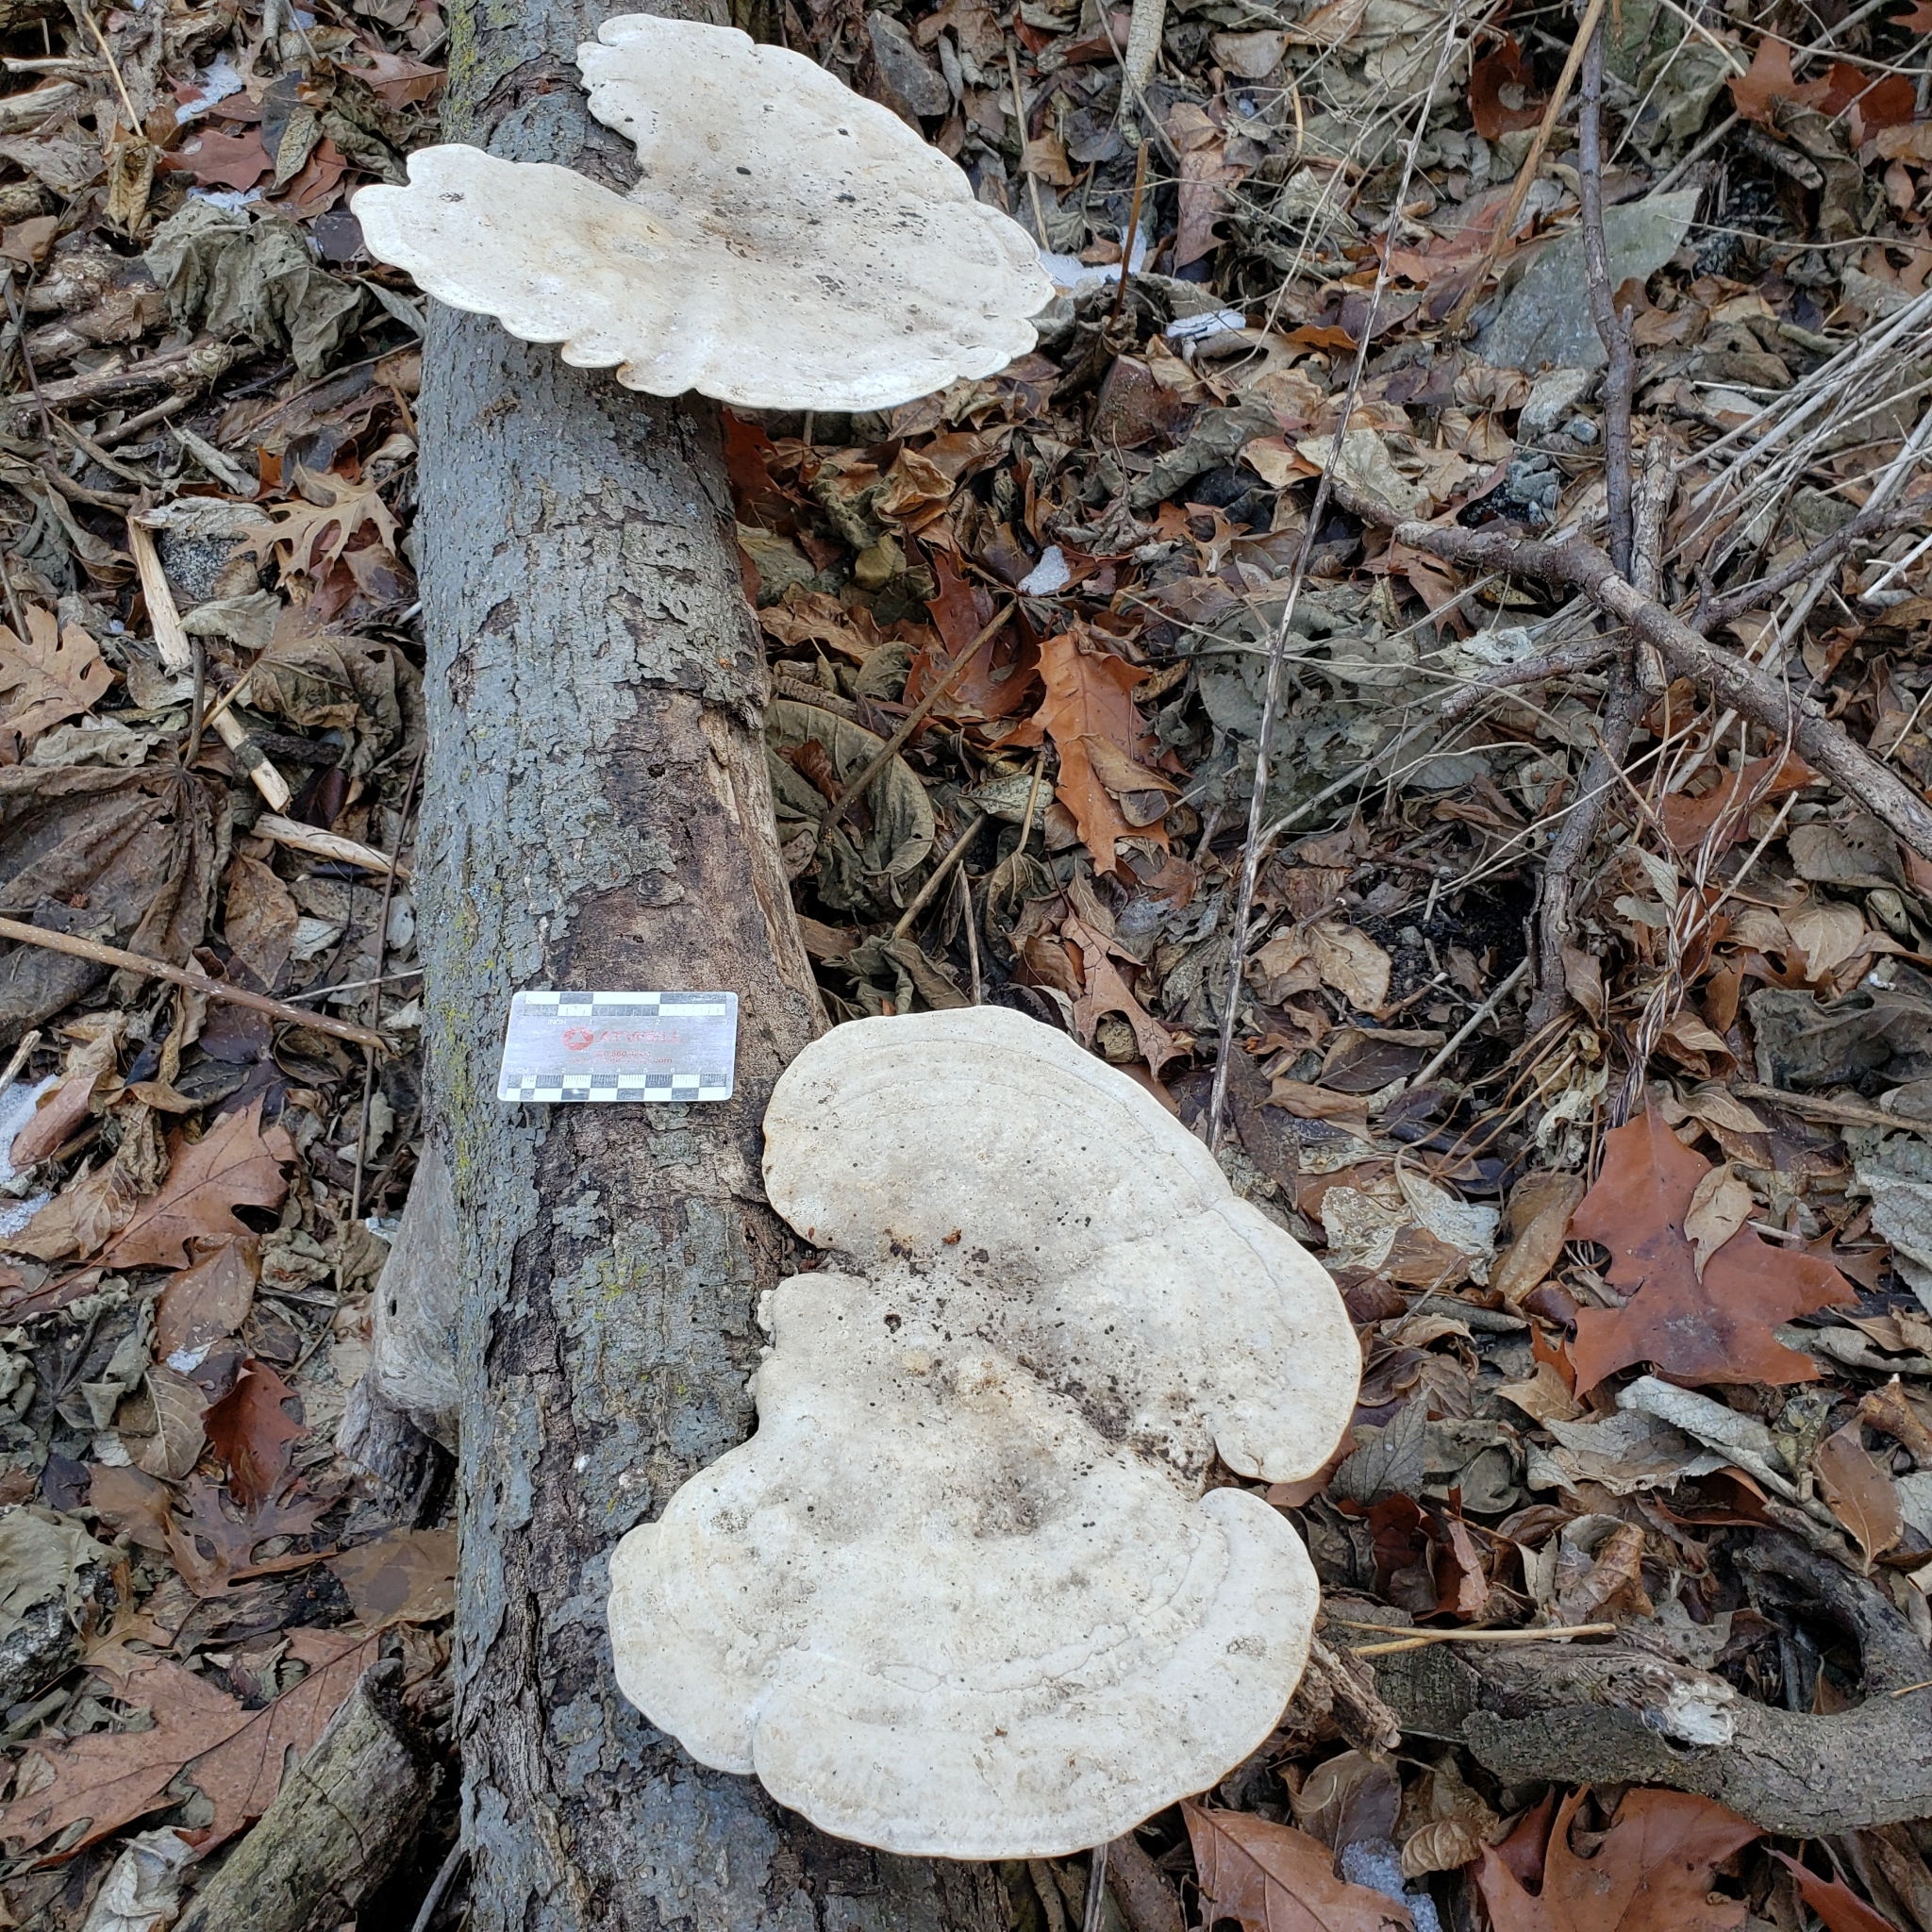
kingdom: Fungi
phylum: Basidiomycota
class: Agaricomycetes
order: Polyporales
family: Polyporaceae
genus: Trametes
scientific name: Trametes gibbosa
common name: Lumpy bracket
